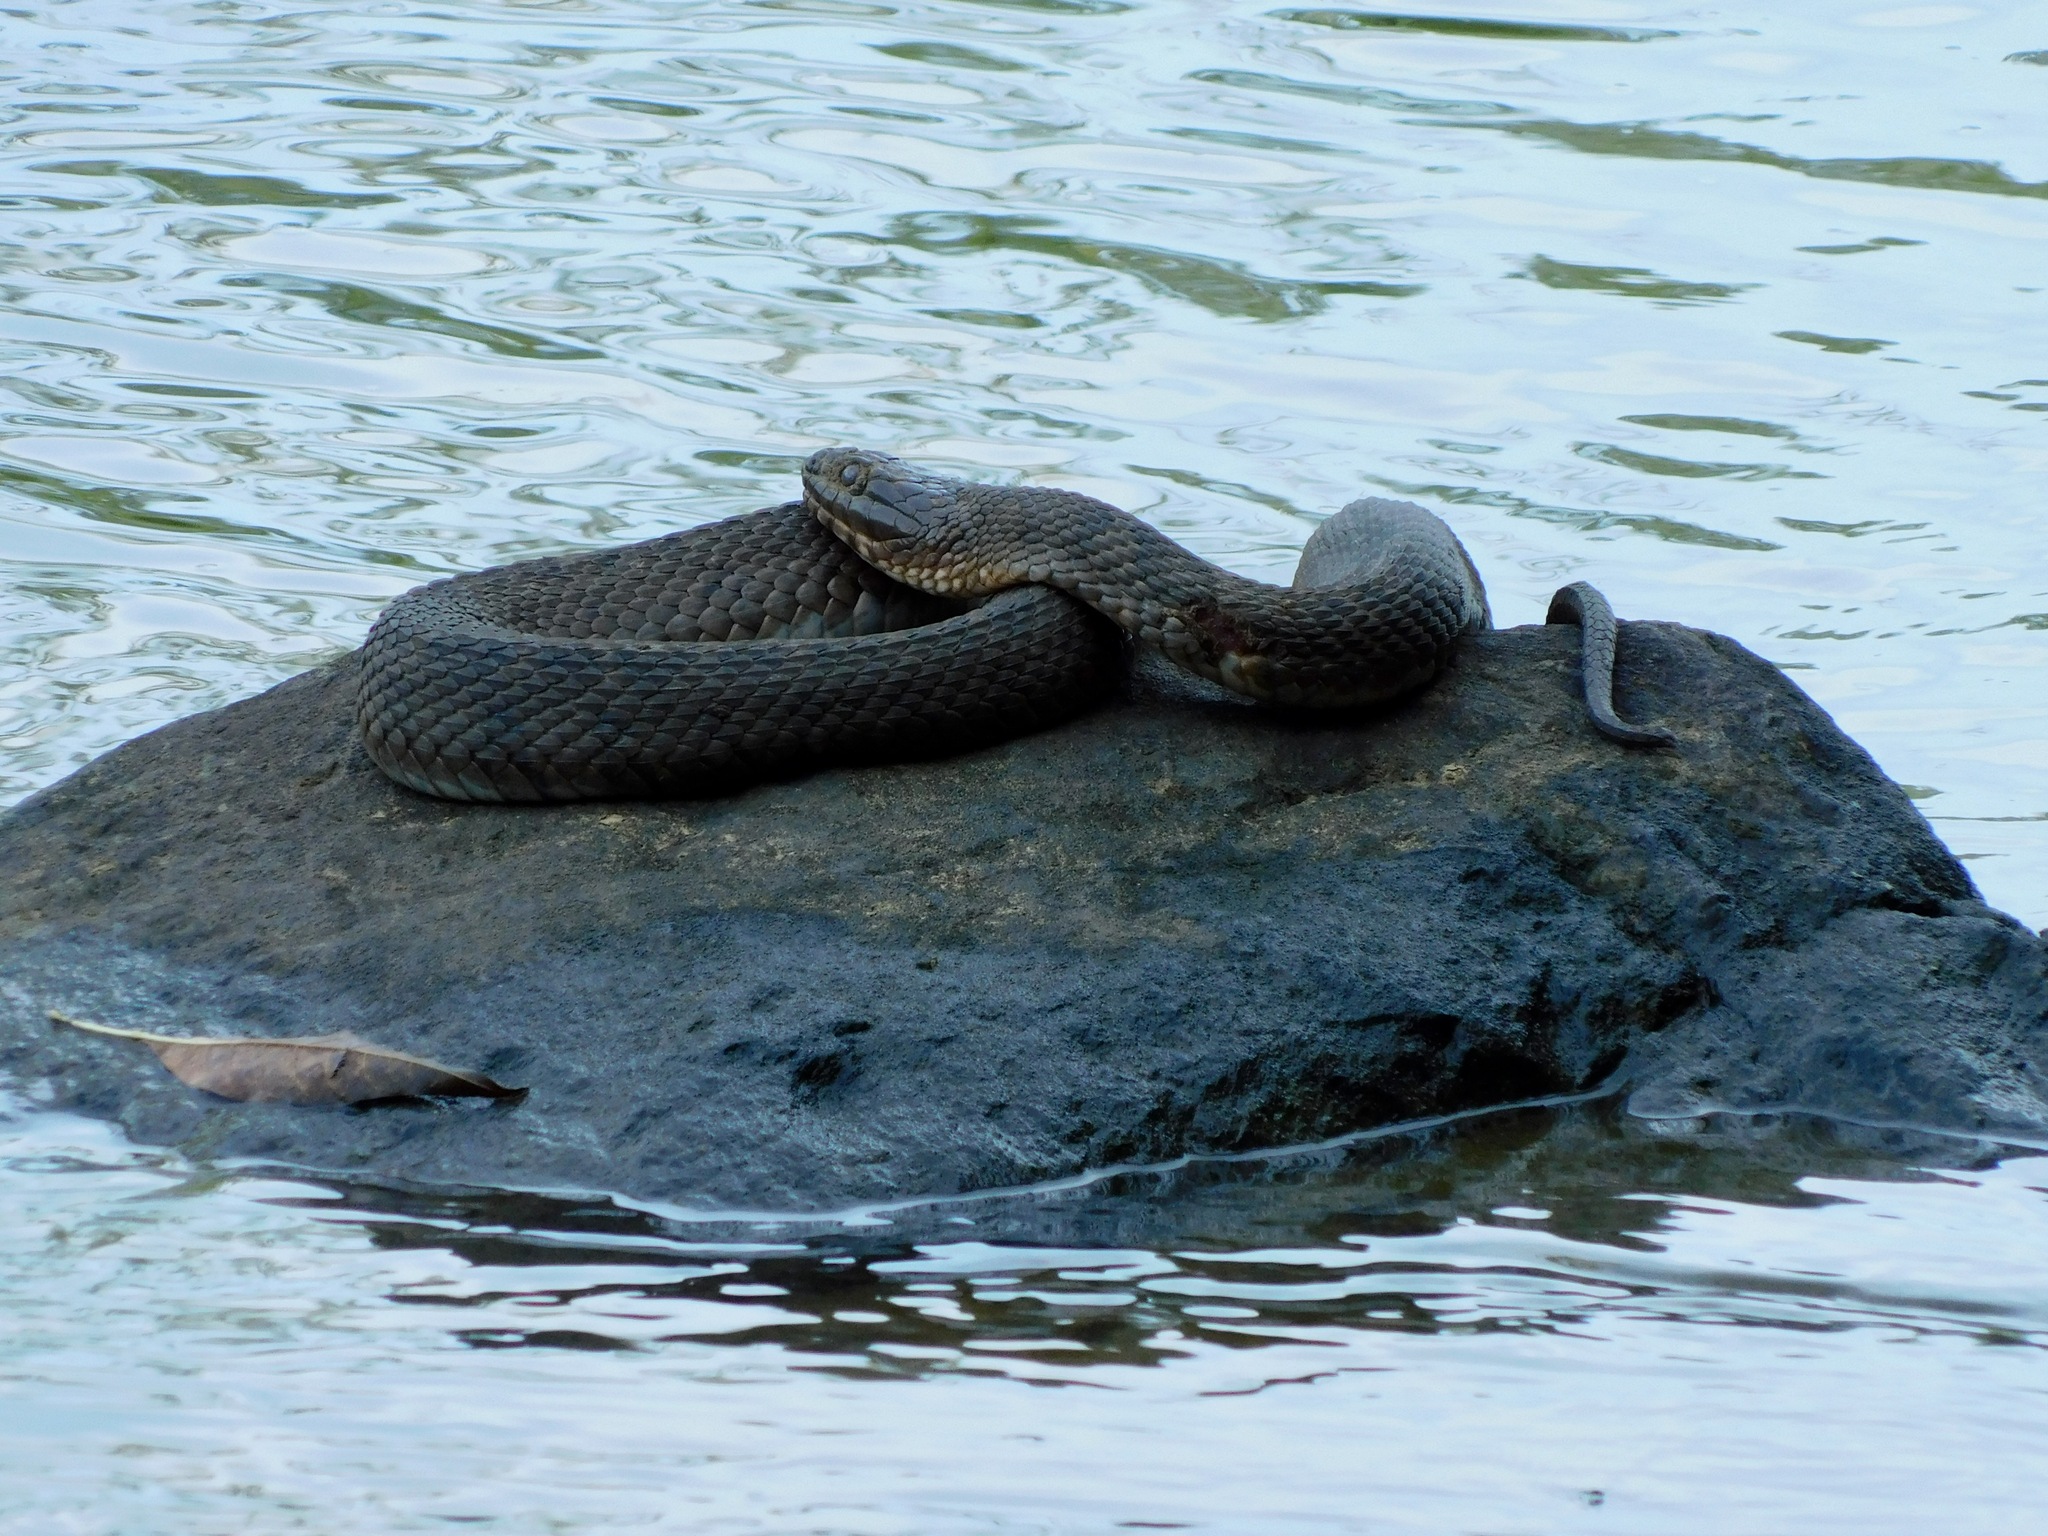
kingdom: Animalia
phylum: Chordata
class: Squamata
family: Colubridae
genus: Nerodia
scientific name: Nerodia sipedon
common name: Northern water snake
